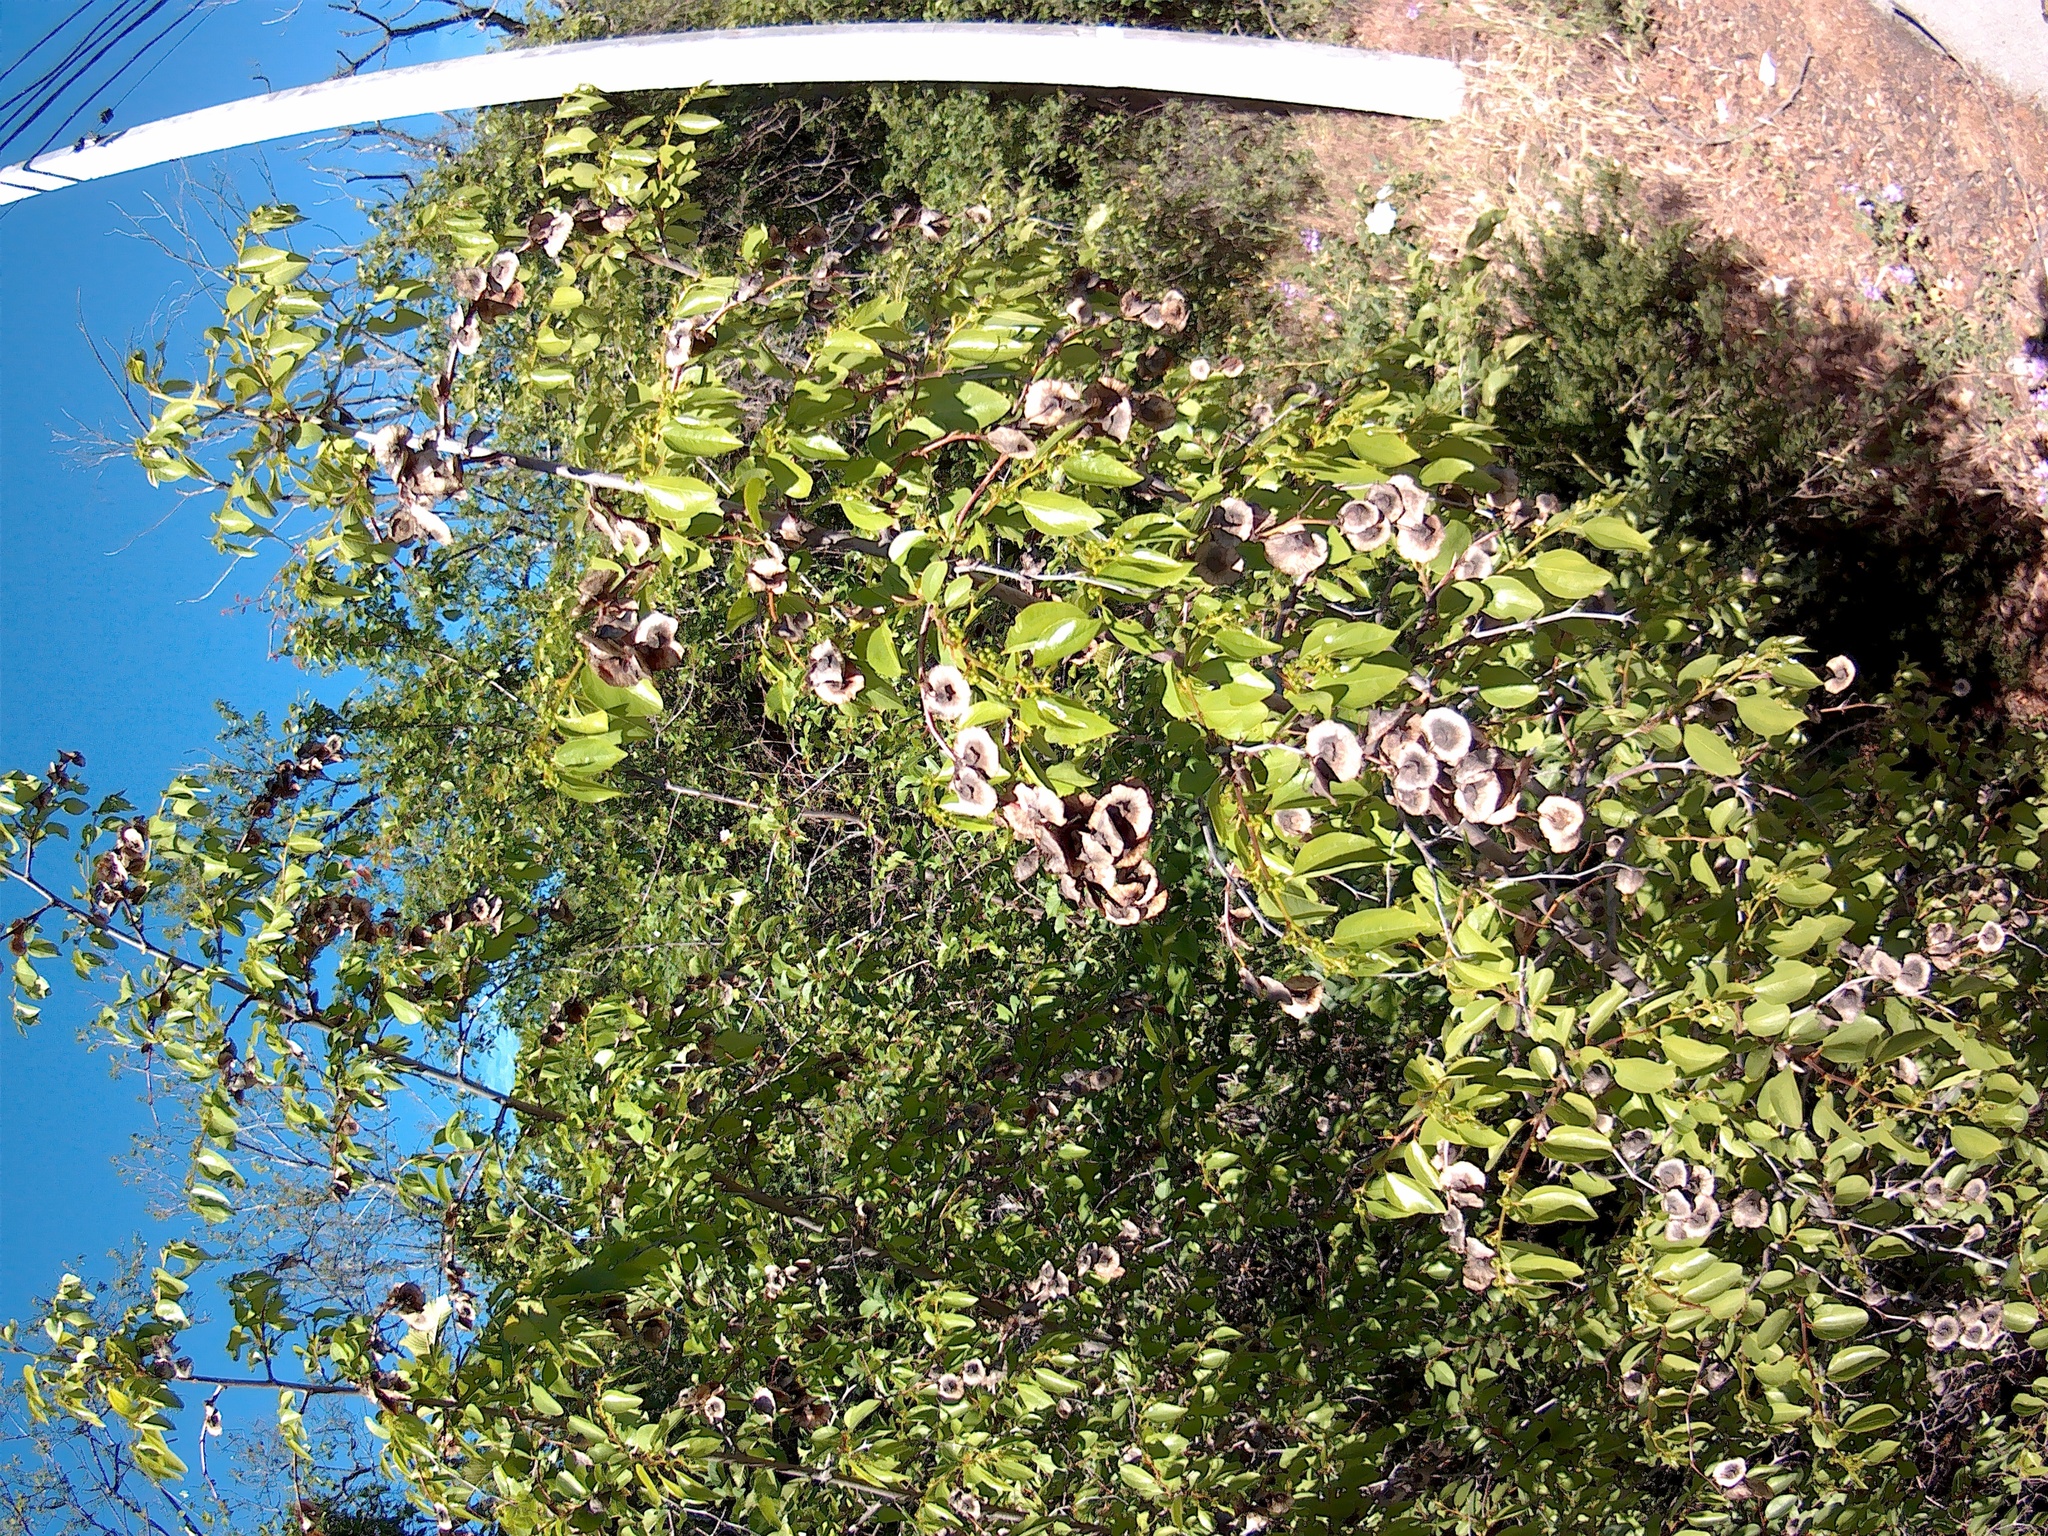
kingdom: Plantae
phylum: Tracheophyta
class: Magnoliopsida
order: Rosales
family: Rhamnaceae
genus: Paliurus
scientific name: Paliurus spina-christi
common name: Jeruselem thorn
